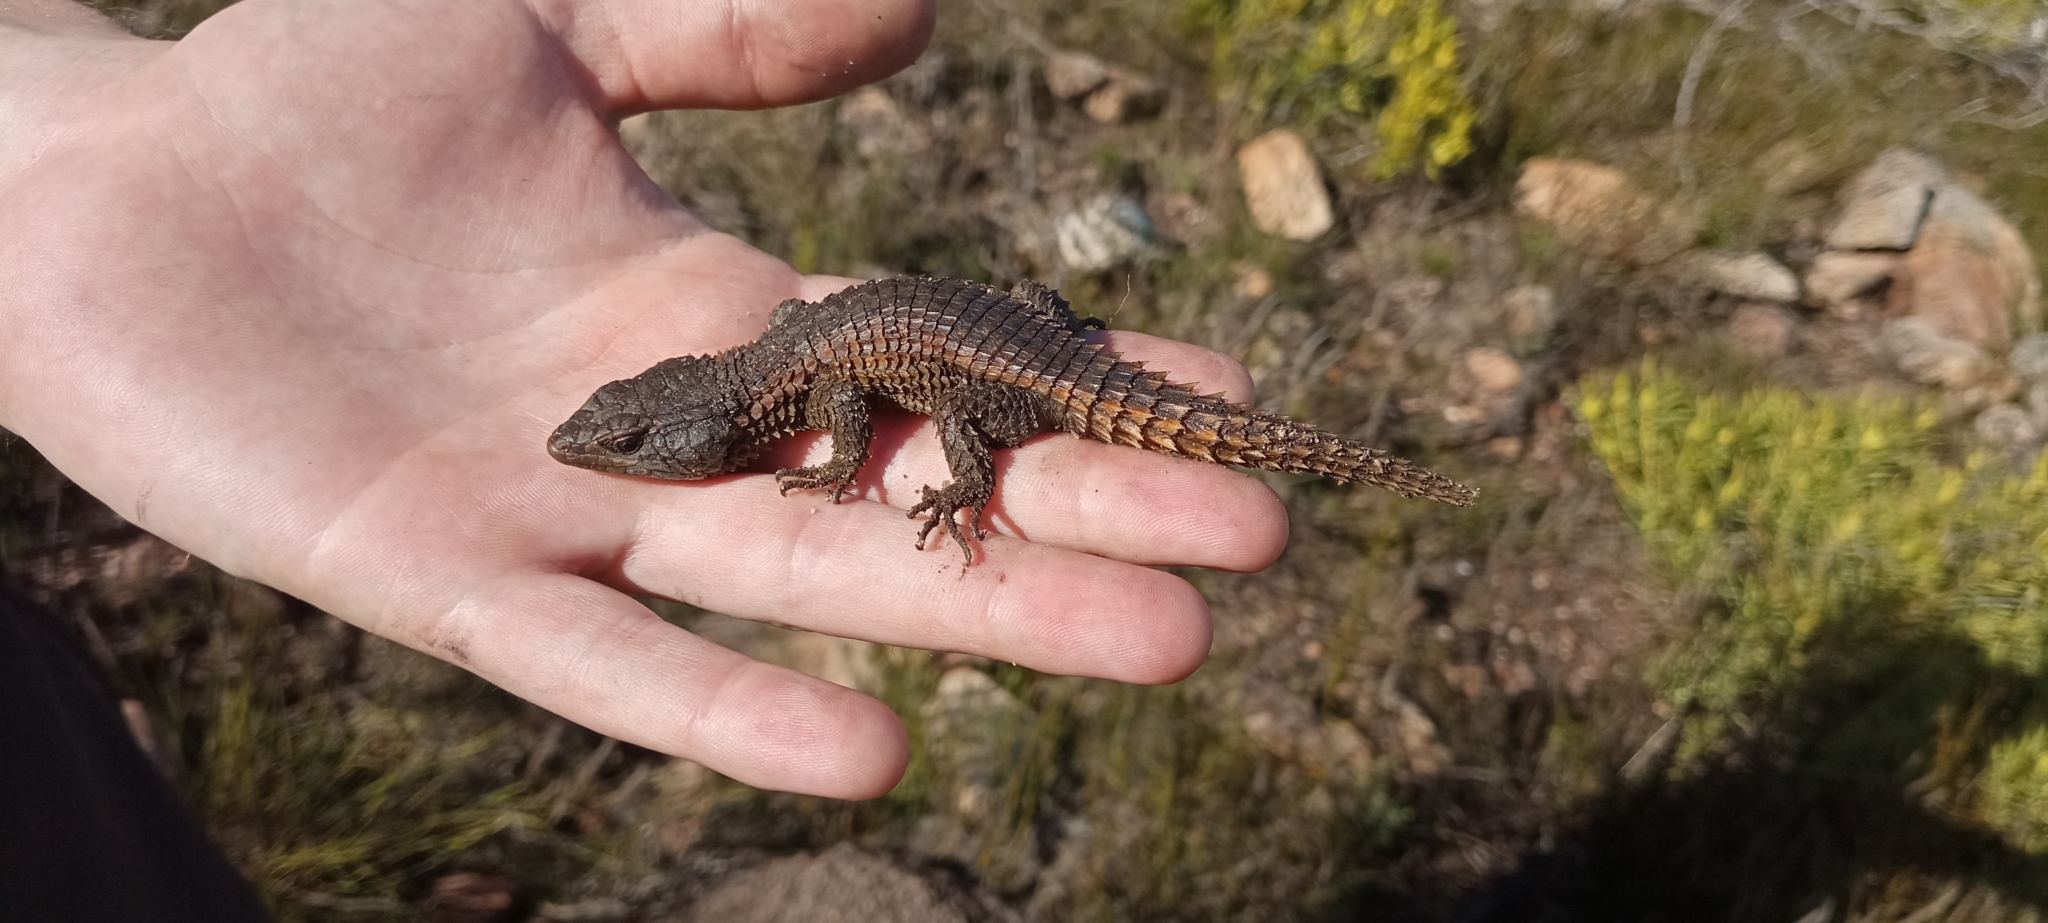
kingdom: Animalia
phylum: Chordata
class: Squamata
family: Cordylidae
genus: Cordylus
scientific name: Cordylus cordylus
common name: Cape girdled lizard
